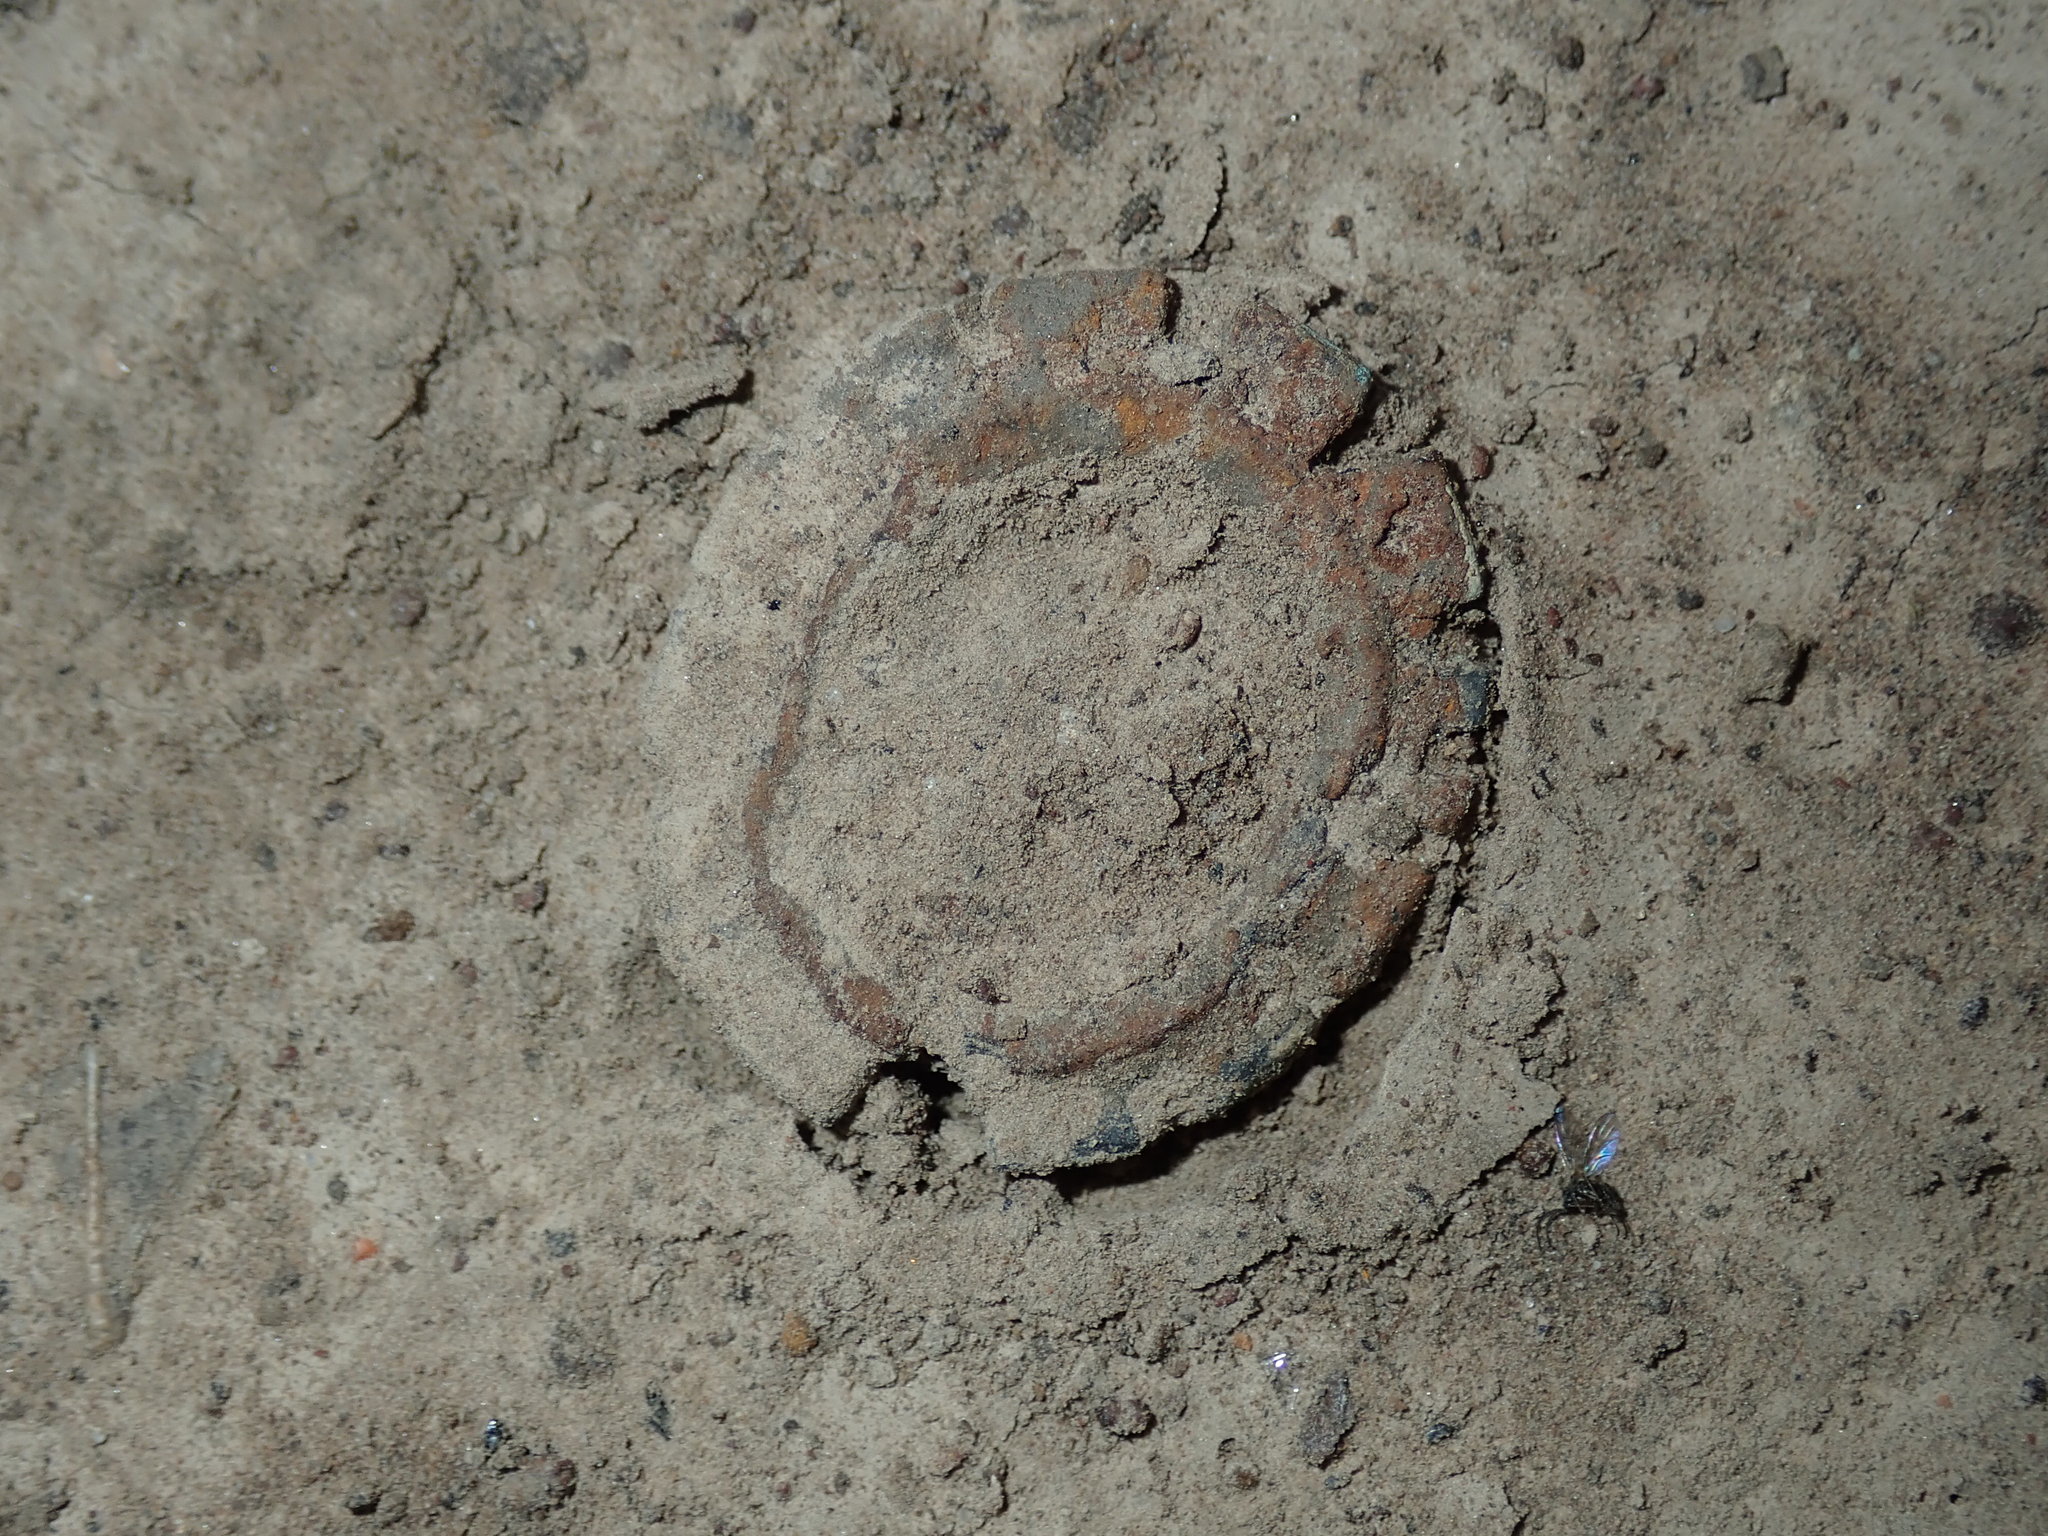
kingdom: Animalia
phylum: Arthropoda
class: Arachnida
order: Araneae
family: Lycosidae
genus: Portacosa
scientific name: Portacosa cinerea
